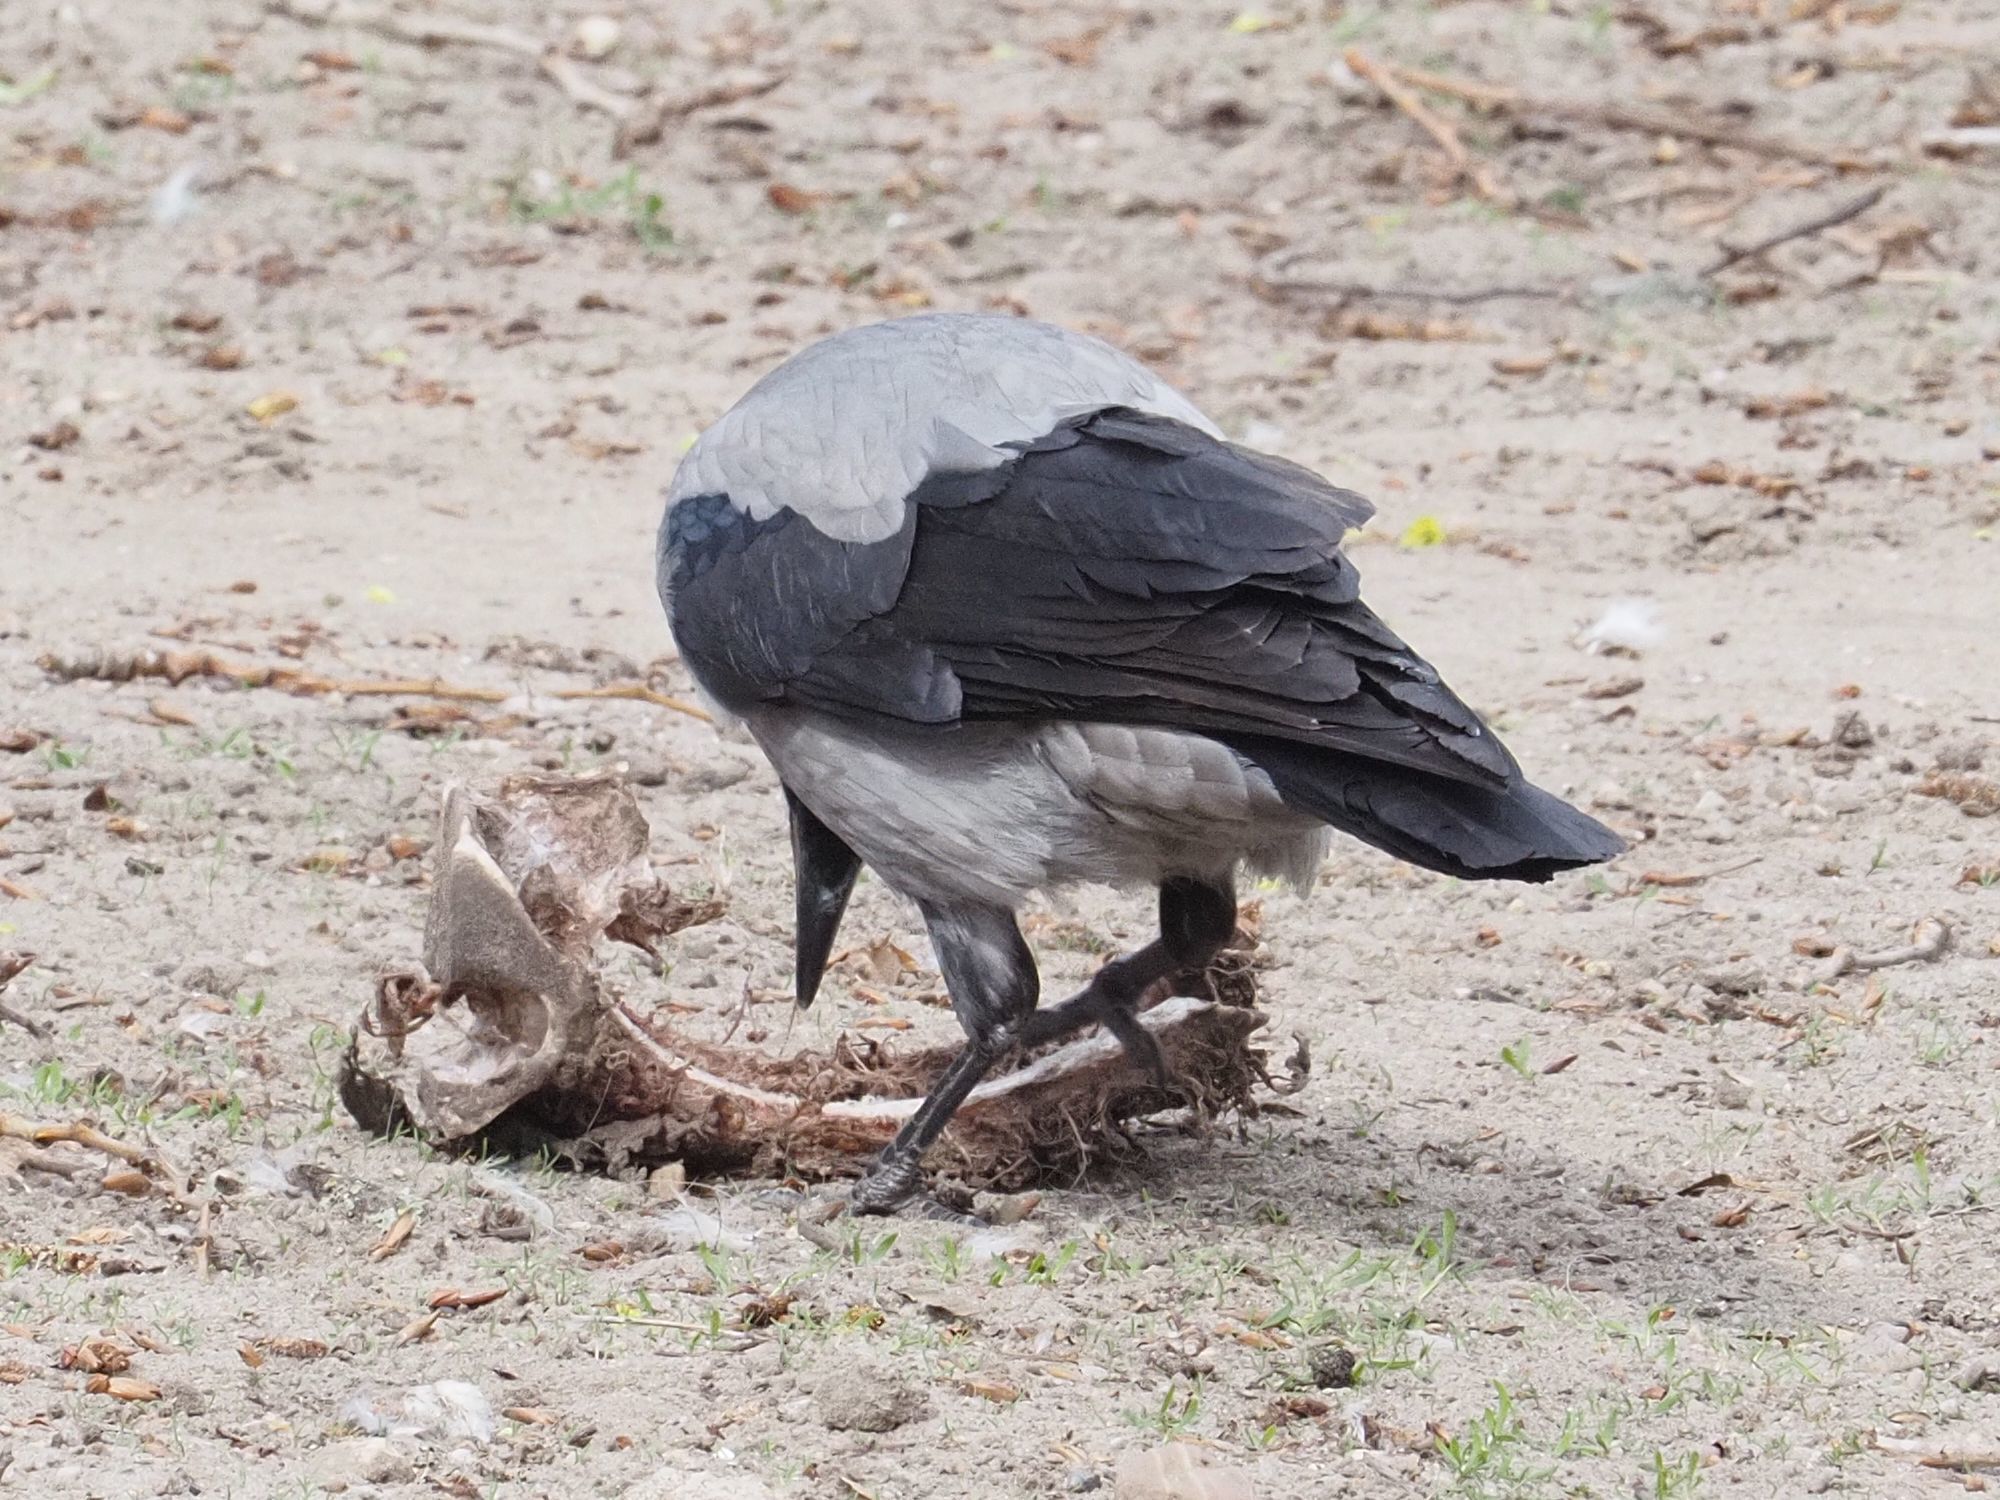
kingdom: Animalia
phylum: Chordata
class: Aves
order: Passeriformes
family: Corvidae
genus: Corvus
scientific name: Corvus cornix
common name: Hooded crow
